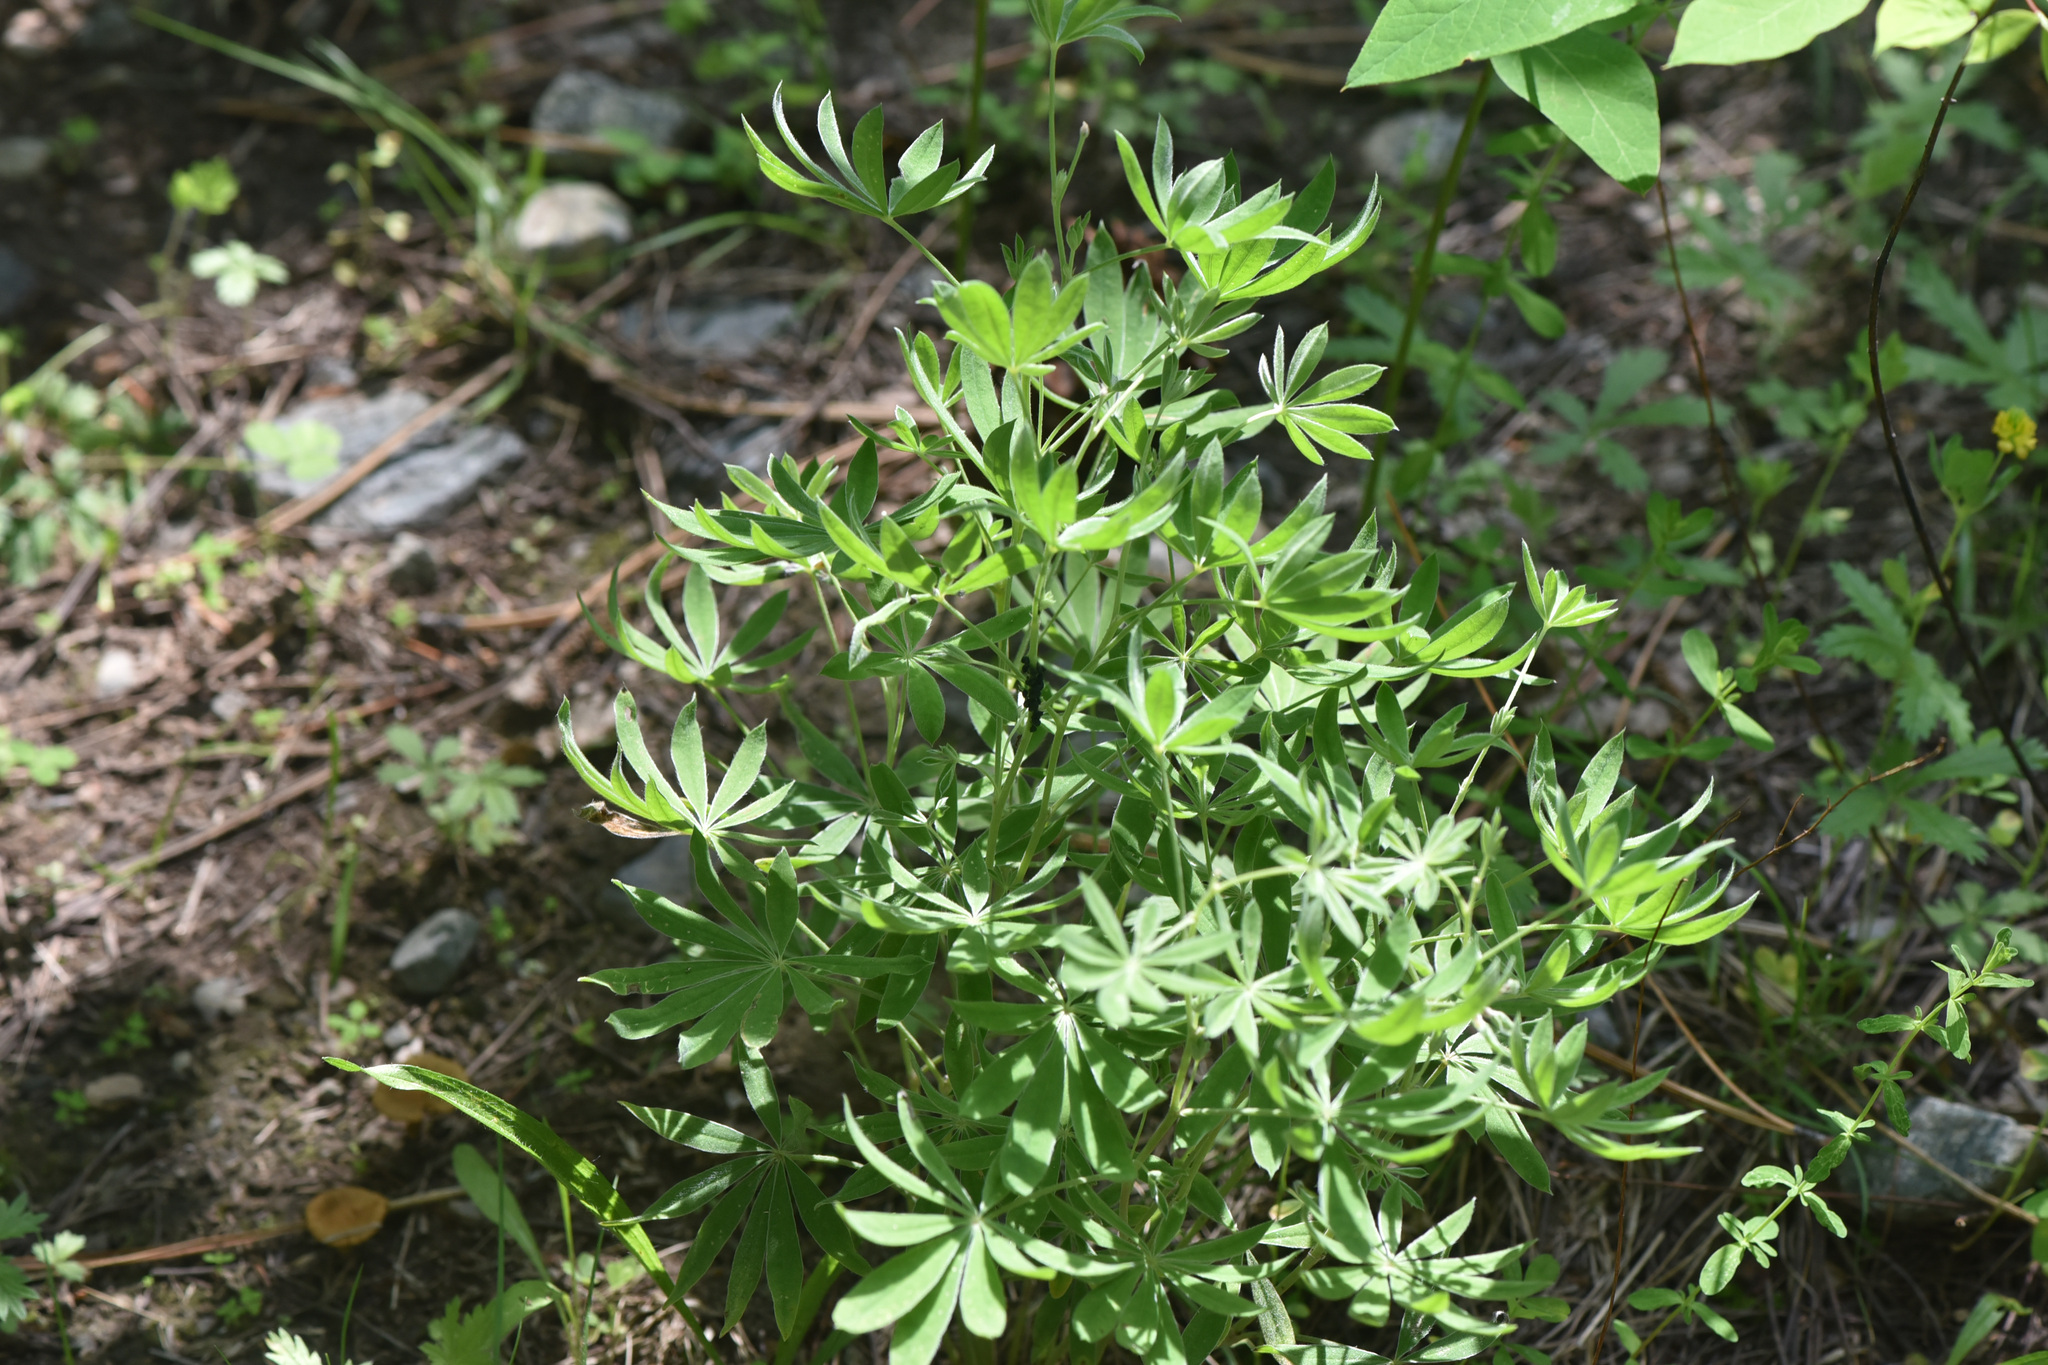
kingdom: Plantae
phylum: Tracheophyta
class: Magnoliopsida
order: Fabales
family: Fabaceae
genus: Lupinus
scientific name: Lupinus sericeus
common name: Silky lupine
